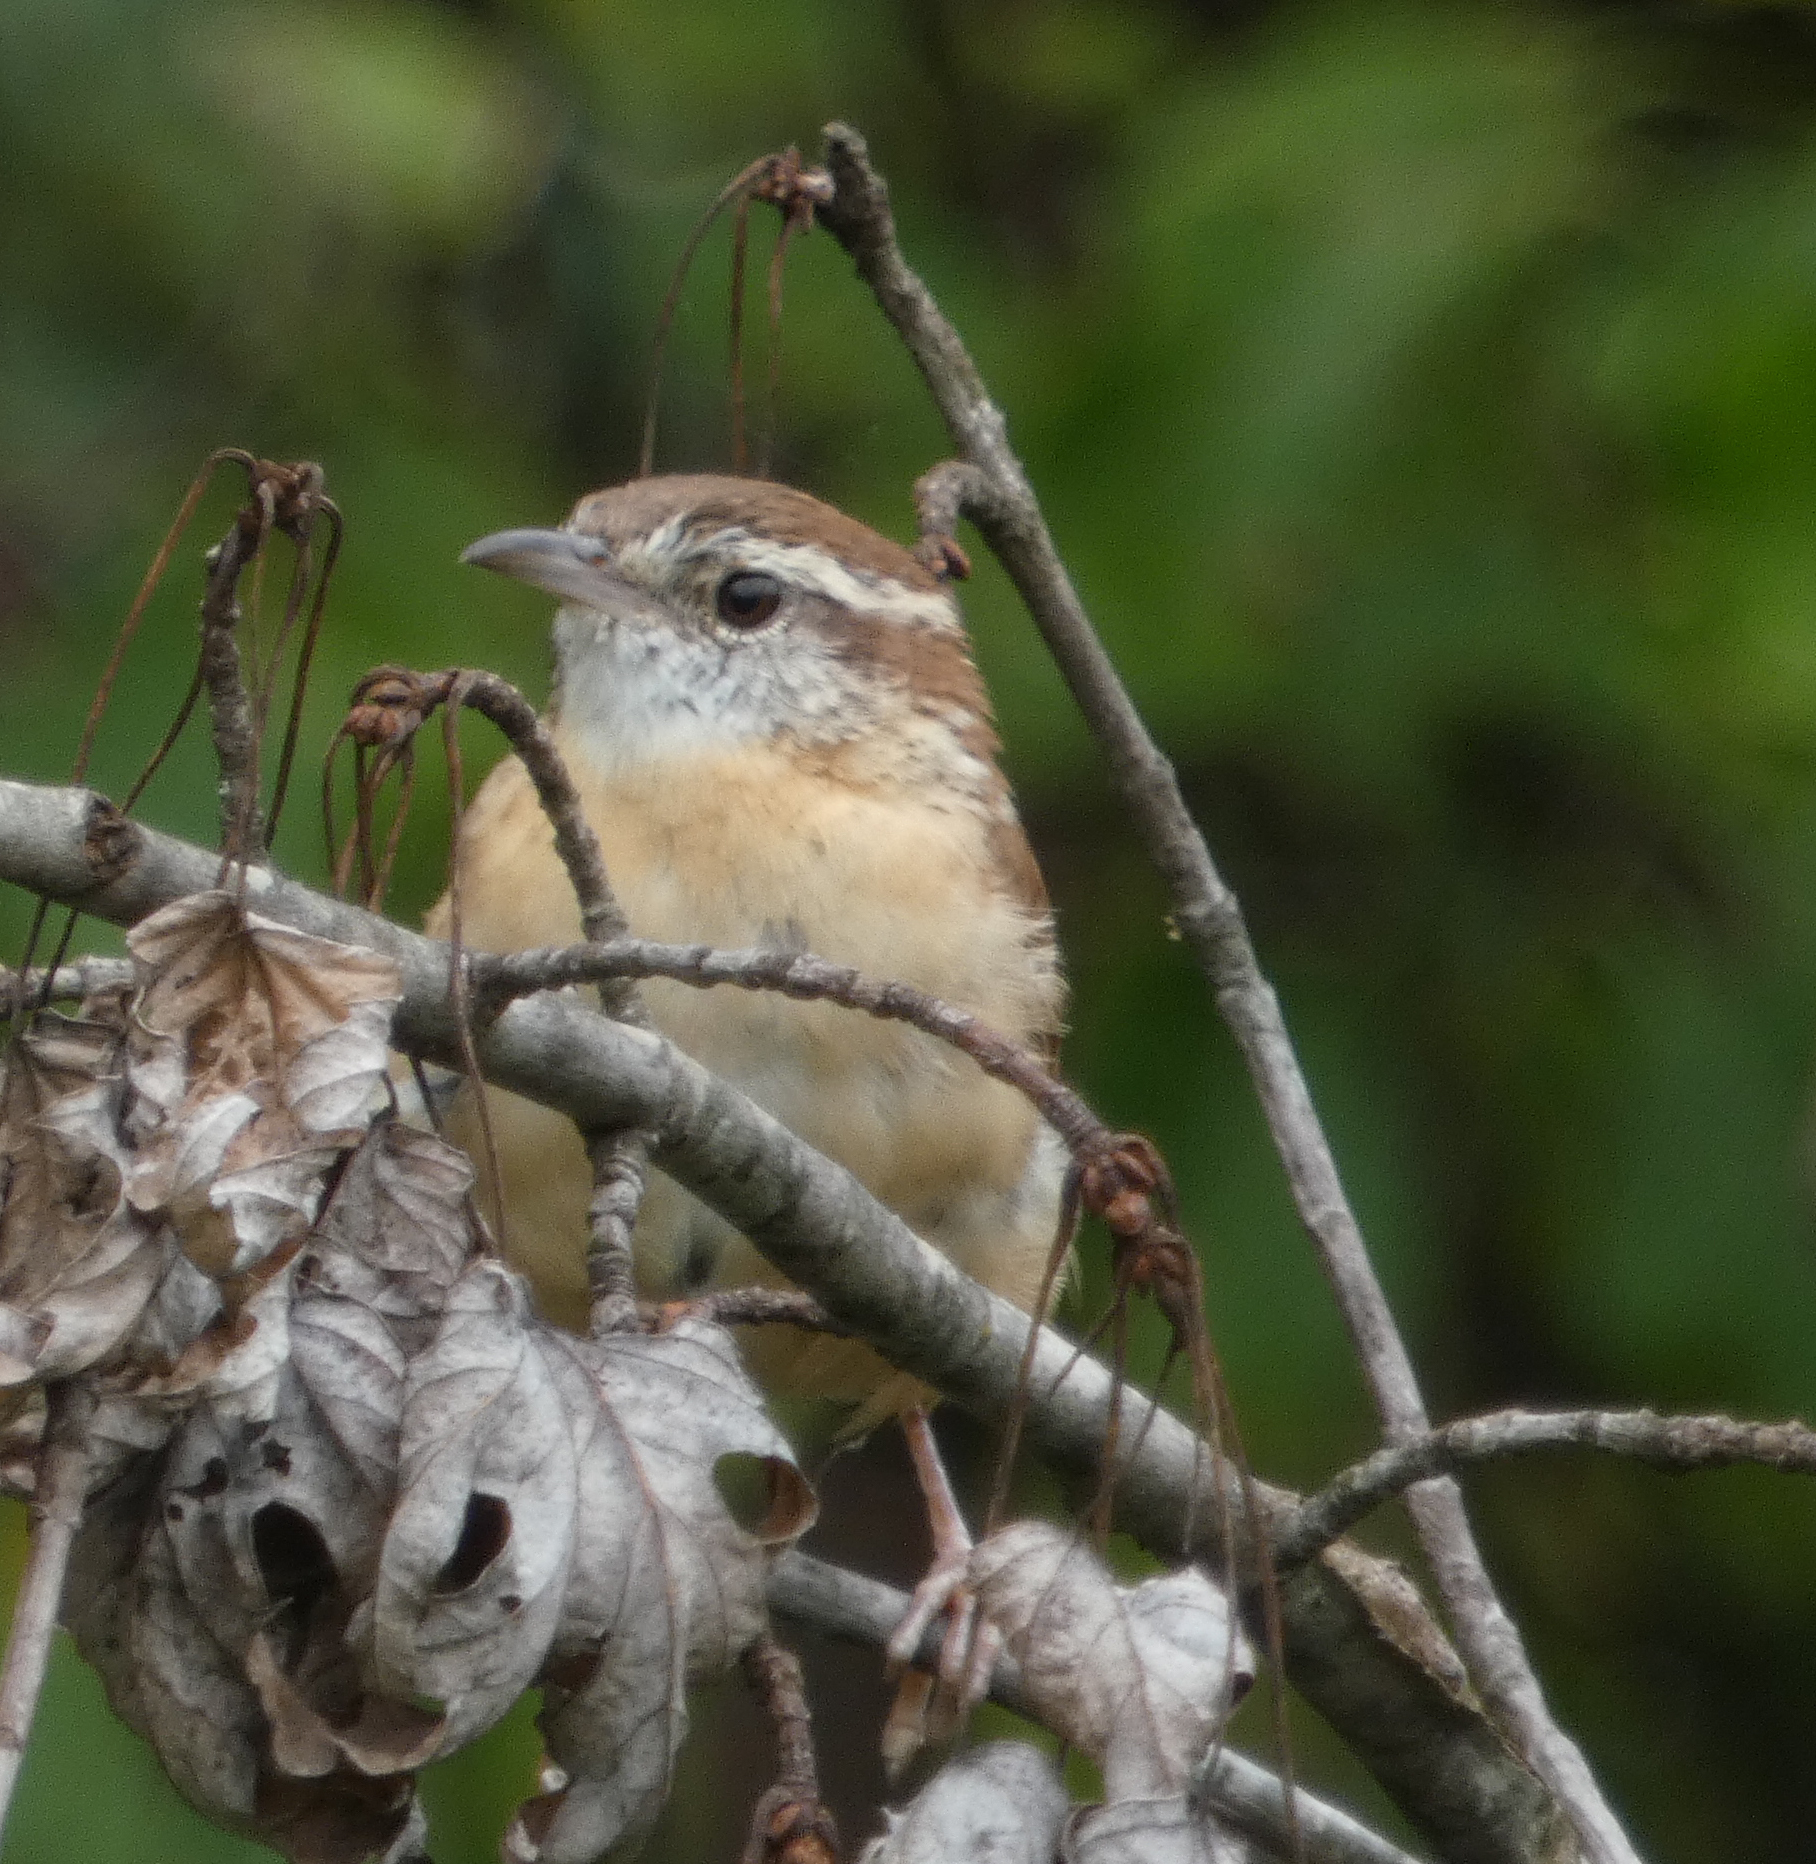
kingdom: Animalia
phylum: Chordata
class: Aves
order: Passeriformes
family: Troglodytidae
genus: Thryothorus
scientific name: Thryothorus ludovicianus
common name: Carolina wren
